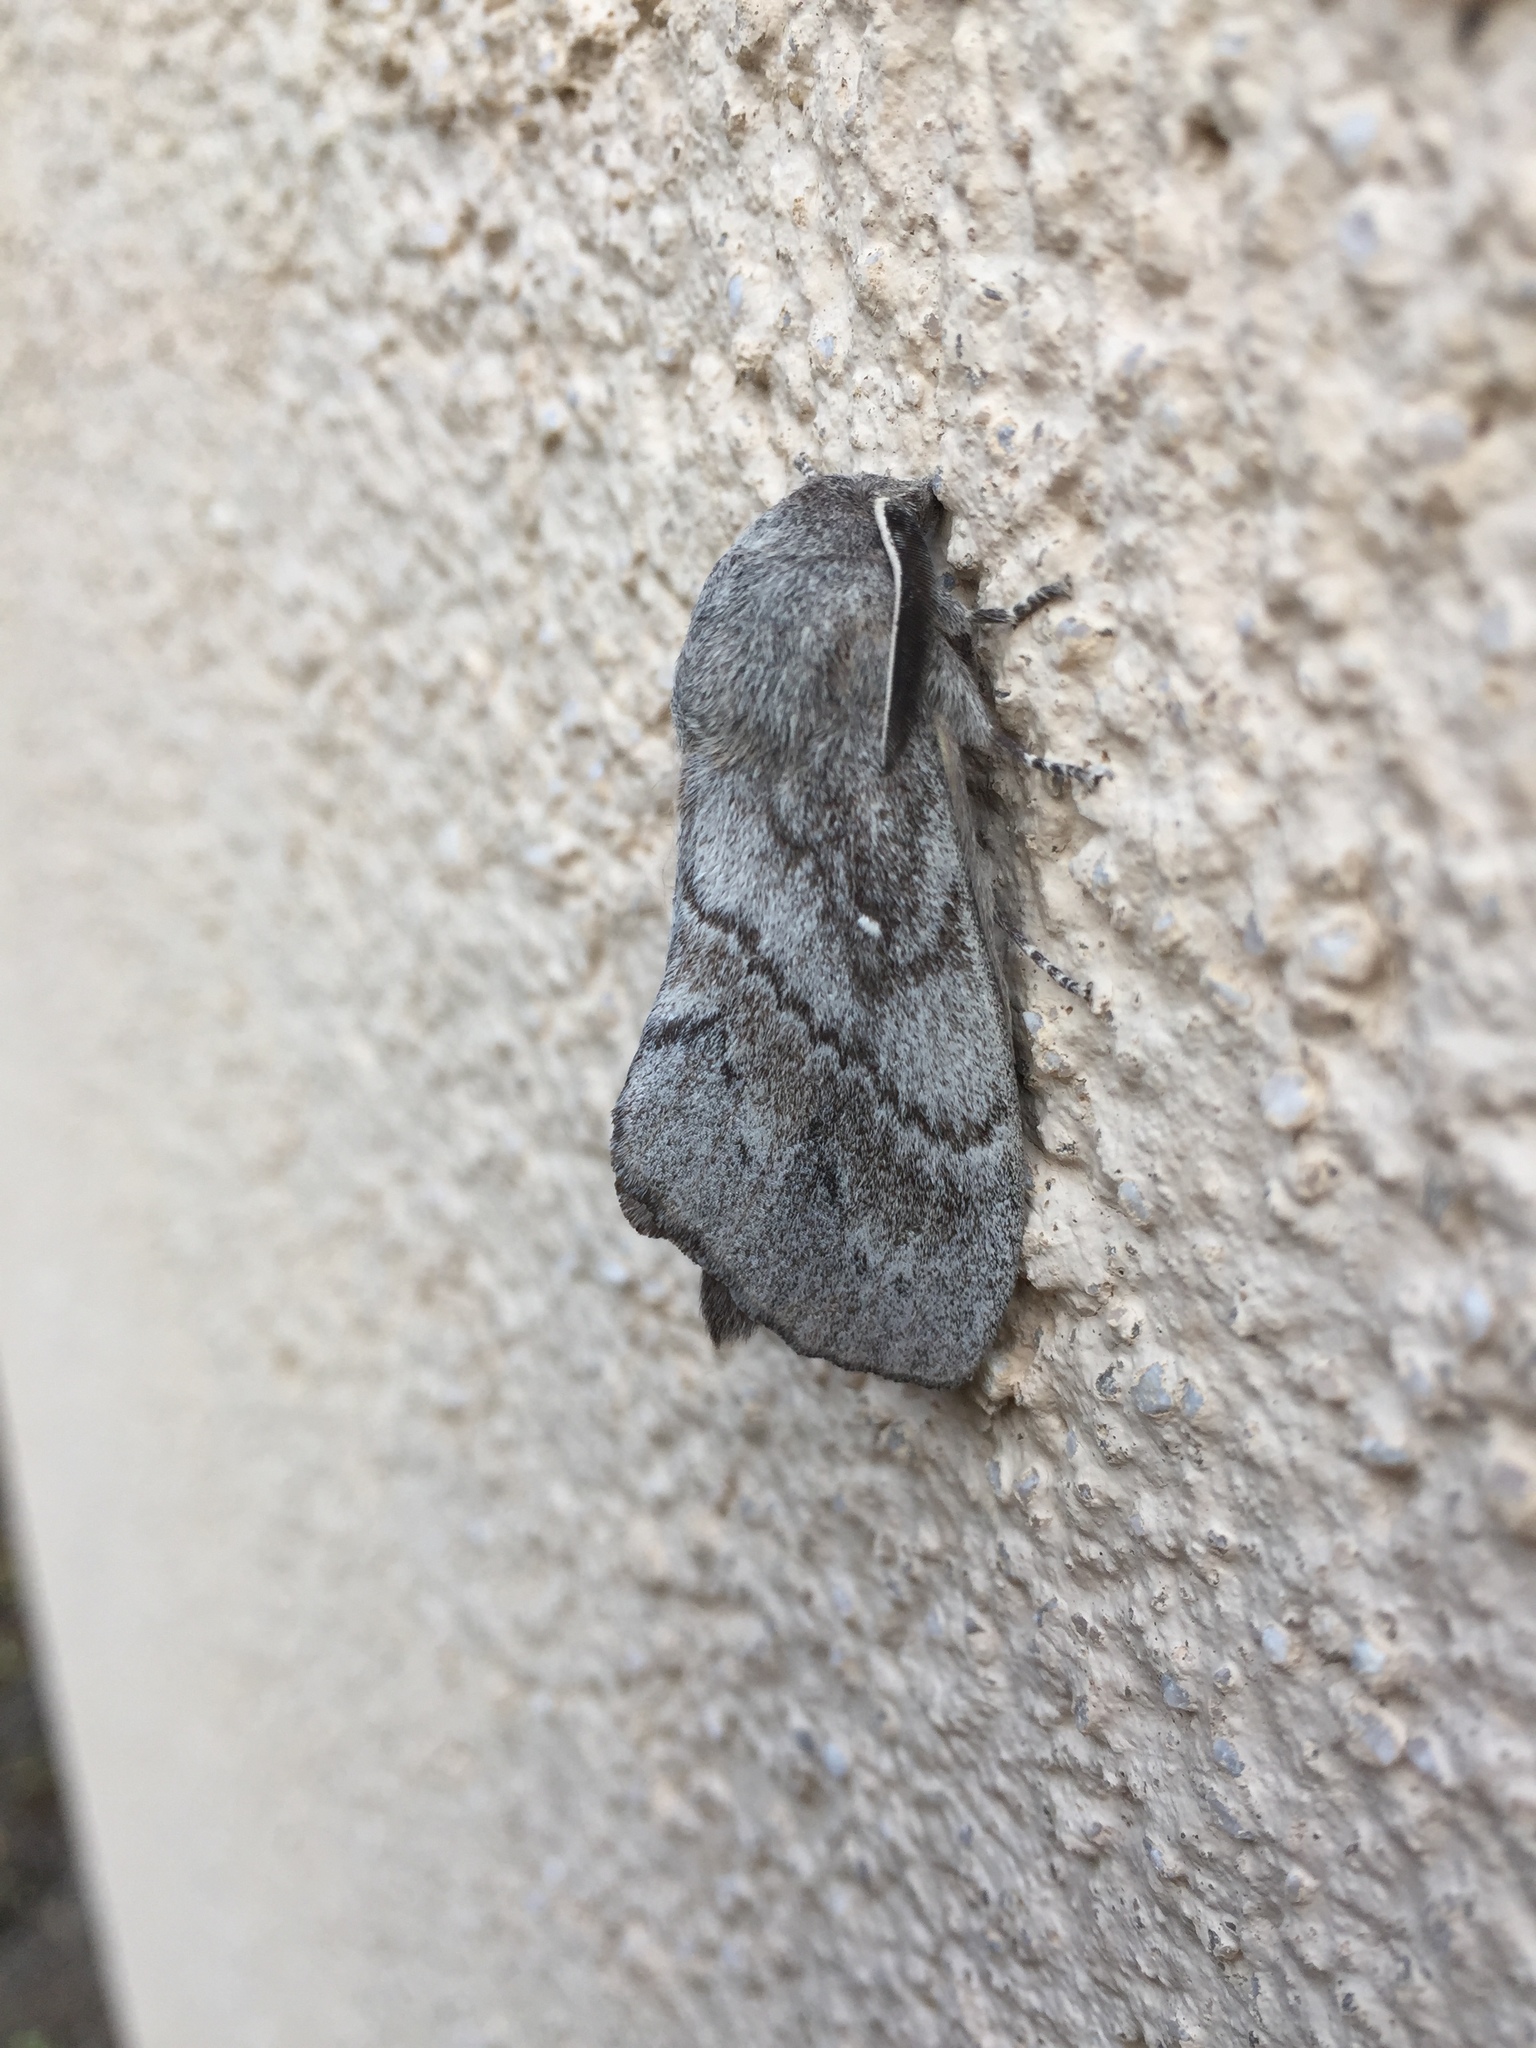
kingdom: Animalia
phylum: Arthropoda
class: Insecta
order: Lepidoptera
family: Lasiocampidae
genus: Dendrolimus
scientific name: Dendrolimus pini
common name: Pine-tree lappet
